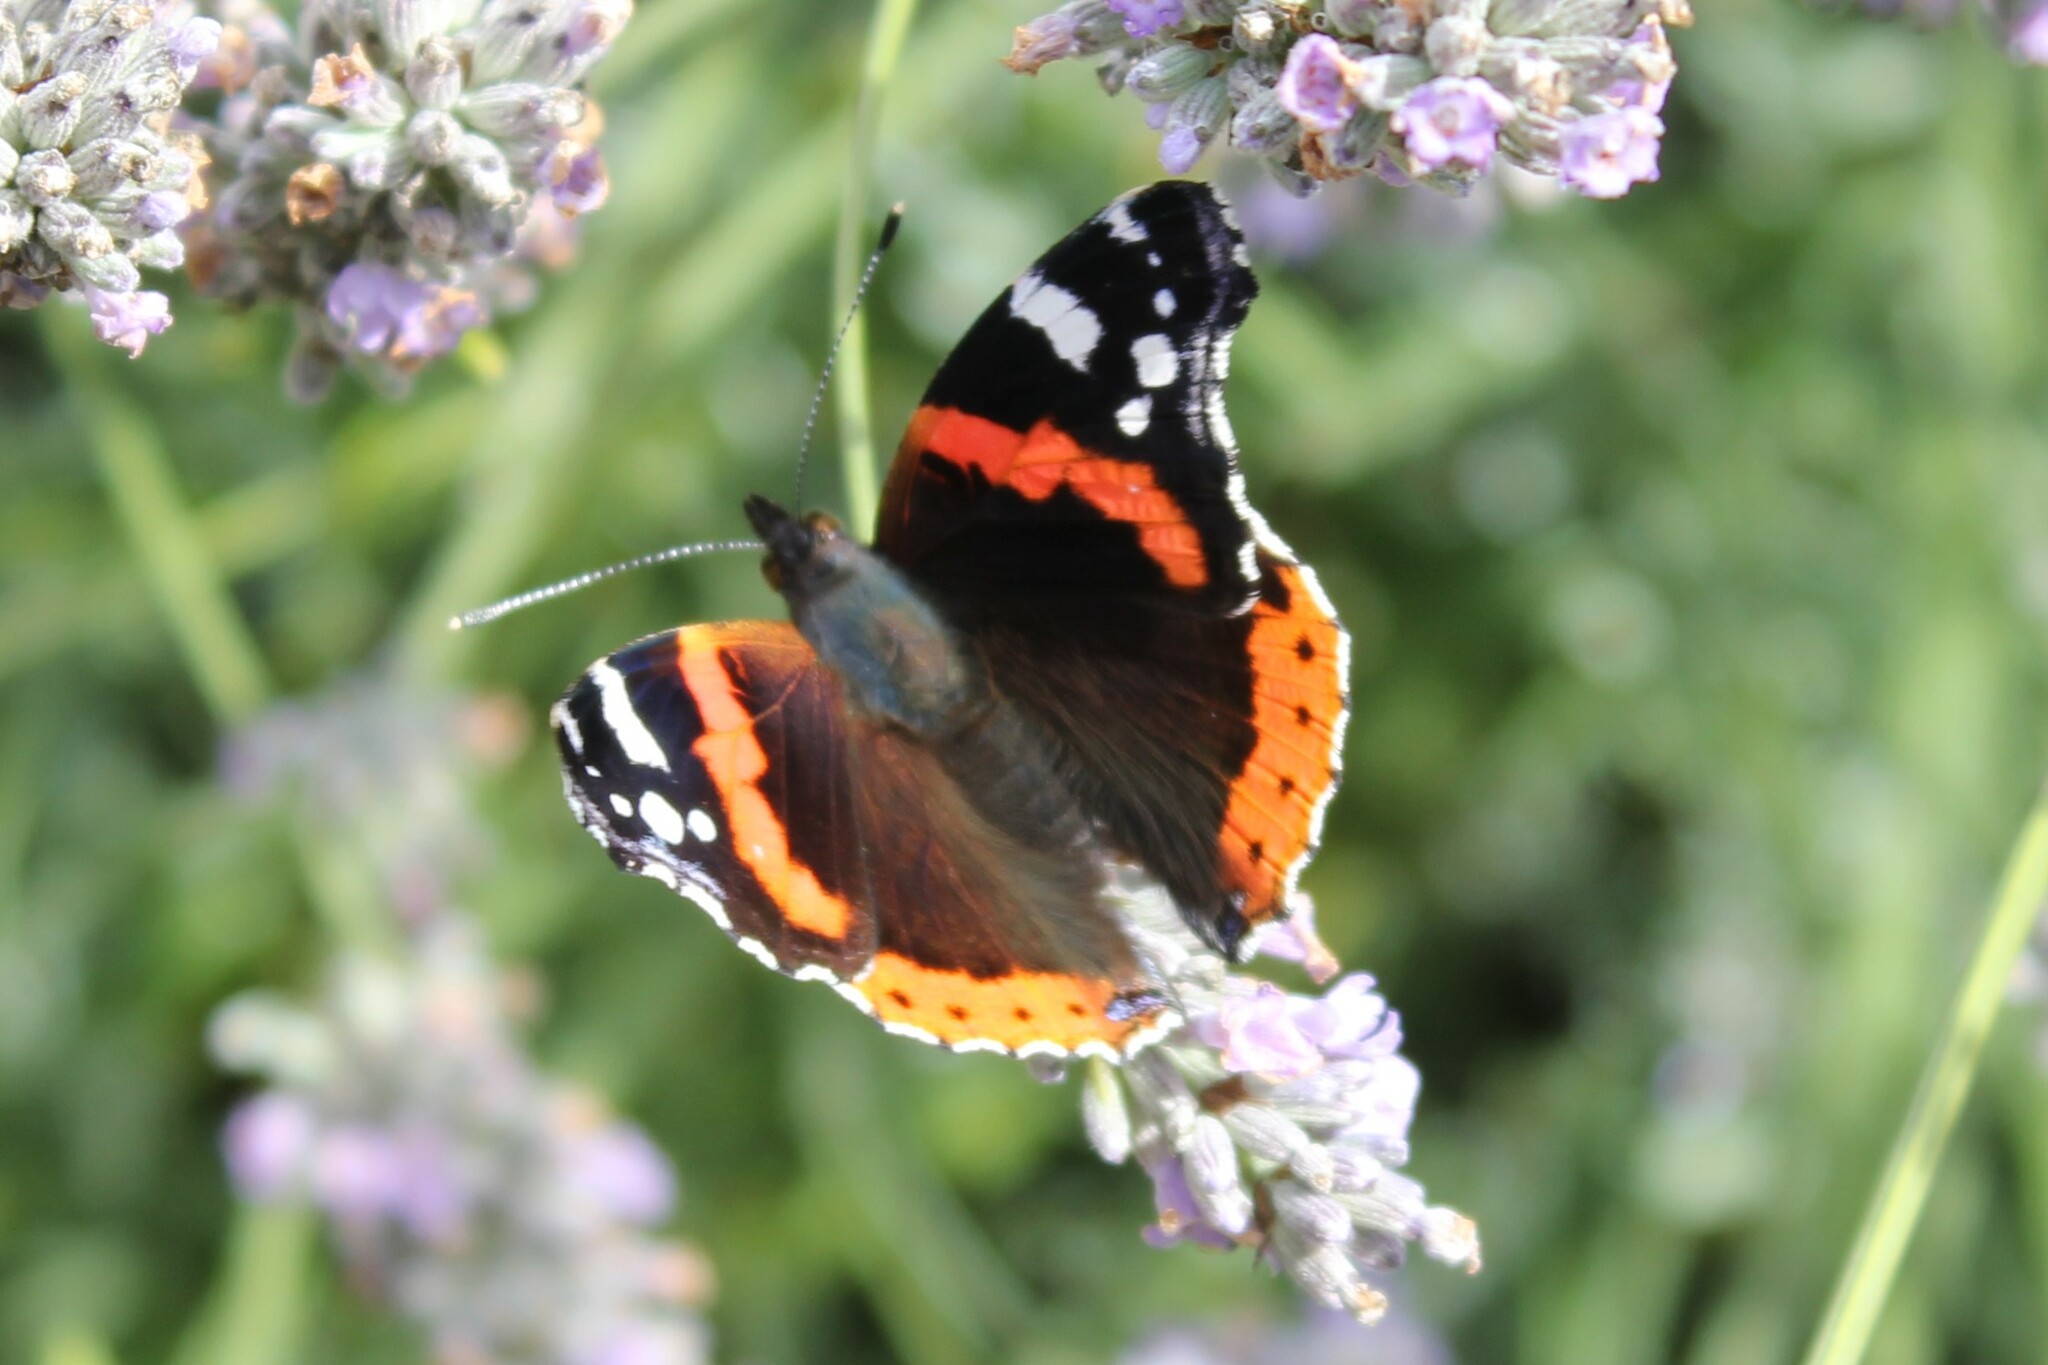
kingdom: Animalia
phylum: Arthropoda
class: Insecta
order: Lepidoptera
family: Nymphalidae
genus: Vanessa
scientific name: Vanessa atalanta
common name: Red admiral
